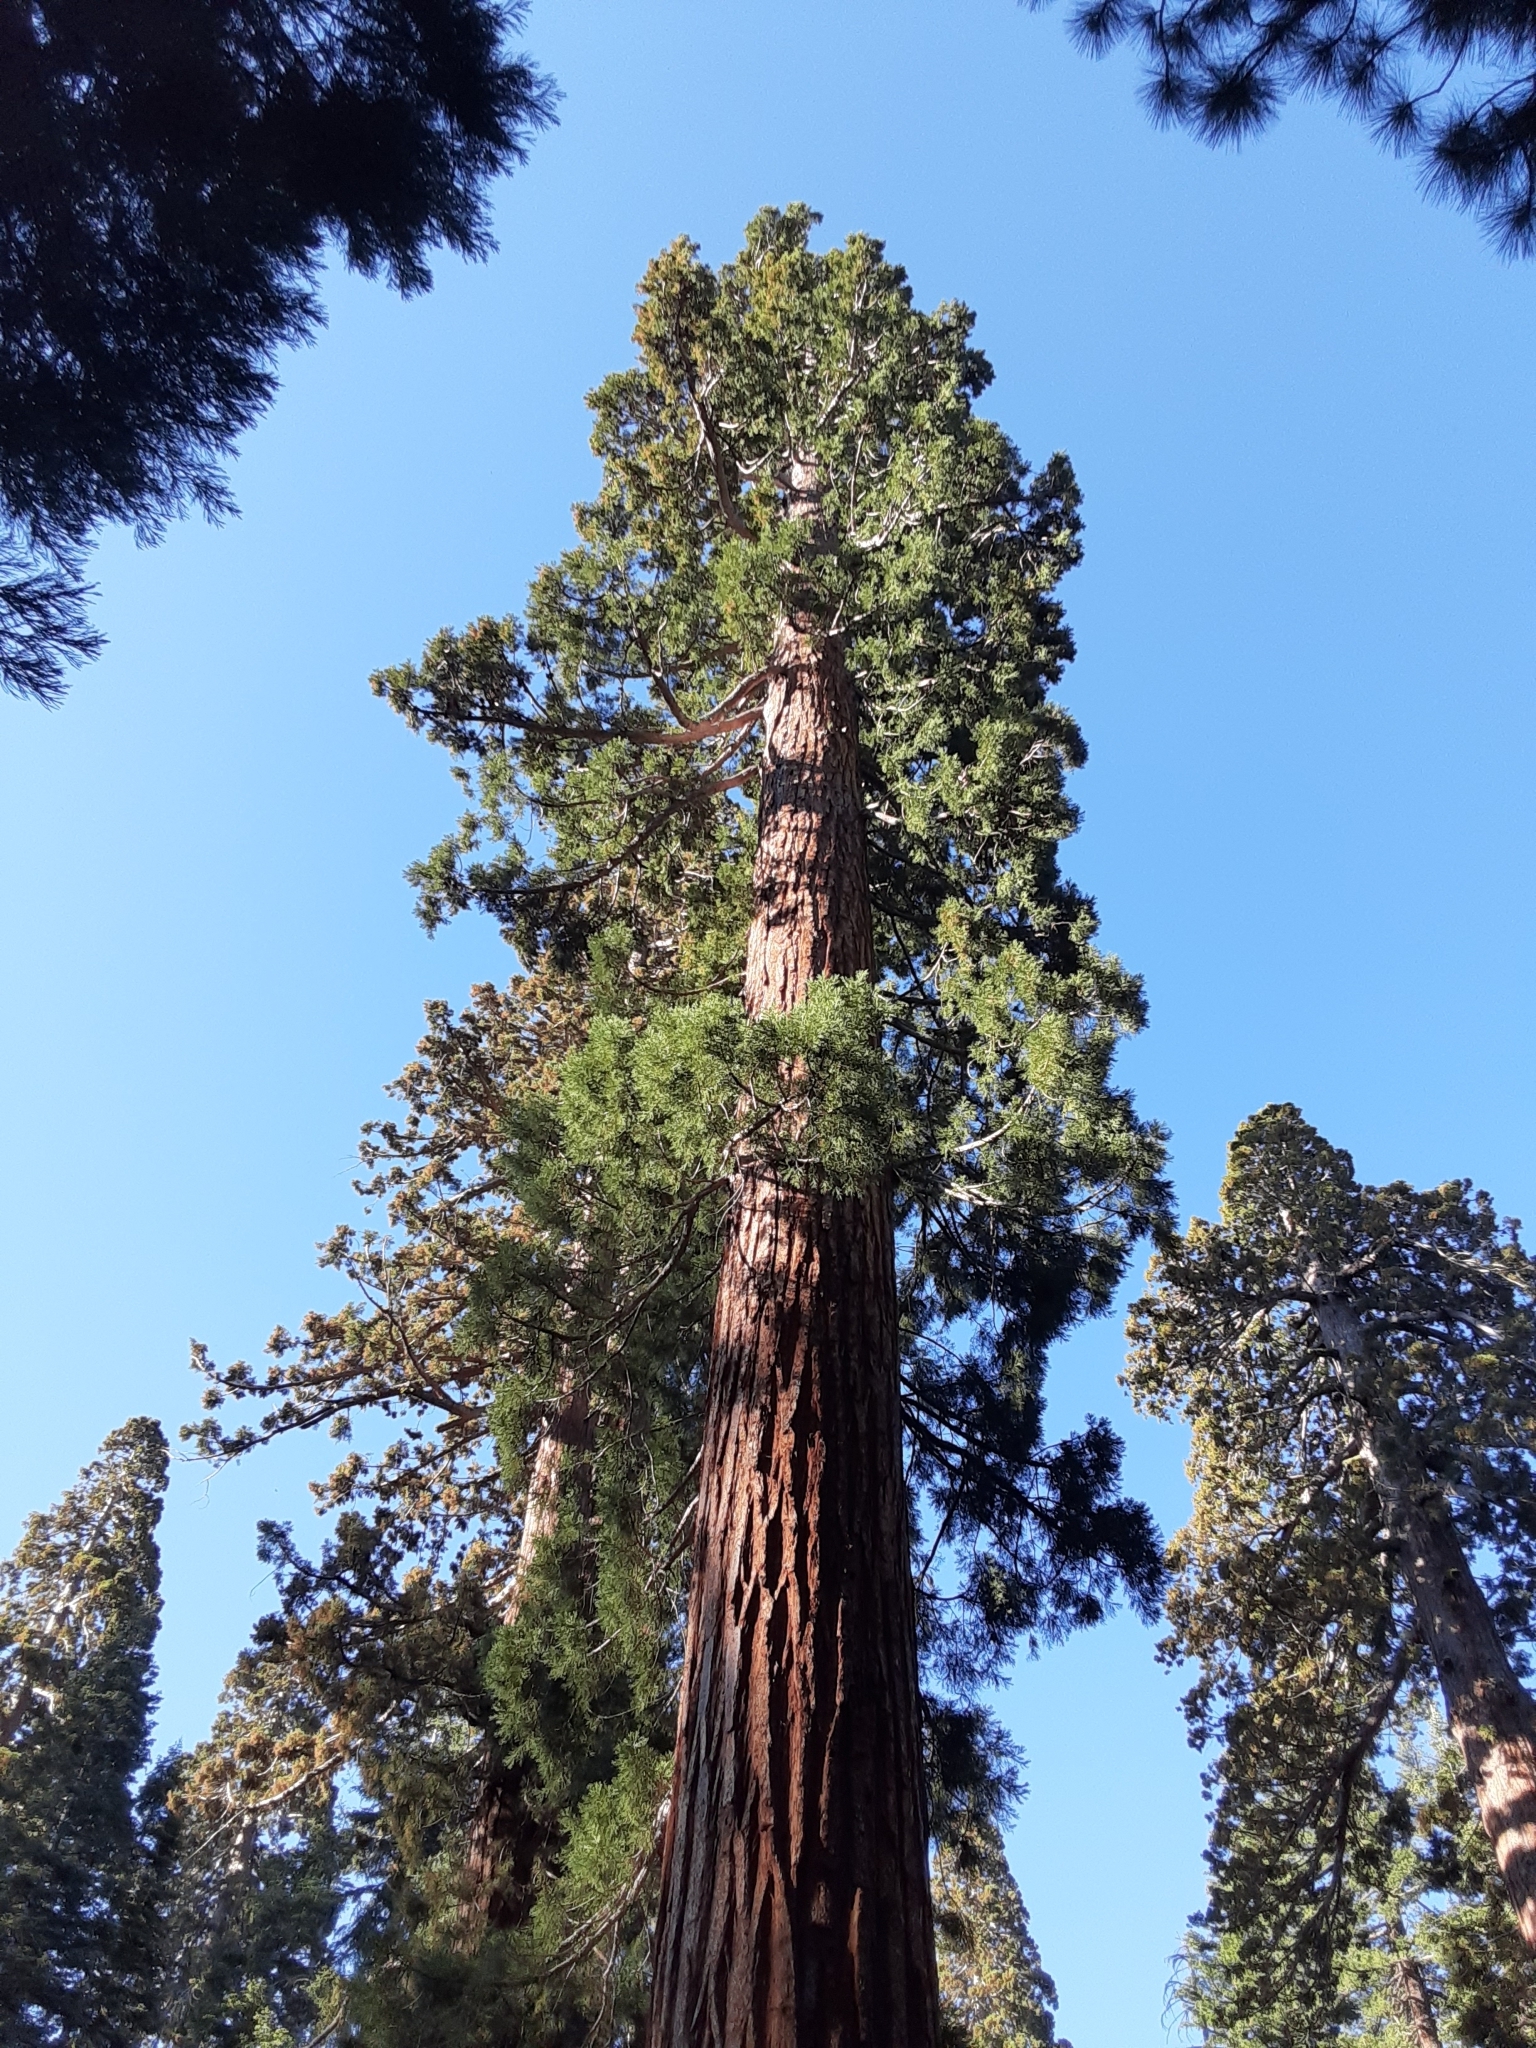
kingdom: Plantae
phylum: Tracheophyta
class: Pinopsida
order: Pinales
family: Cupressaceae
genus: Sequoiadendron
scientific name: Sequoiadendron giganteum
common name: Wellingtonia
